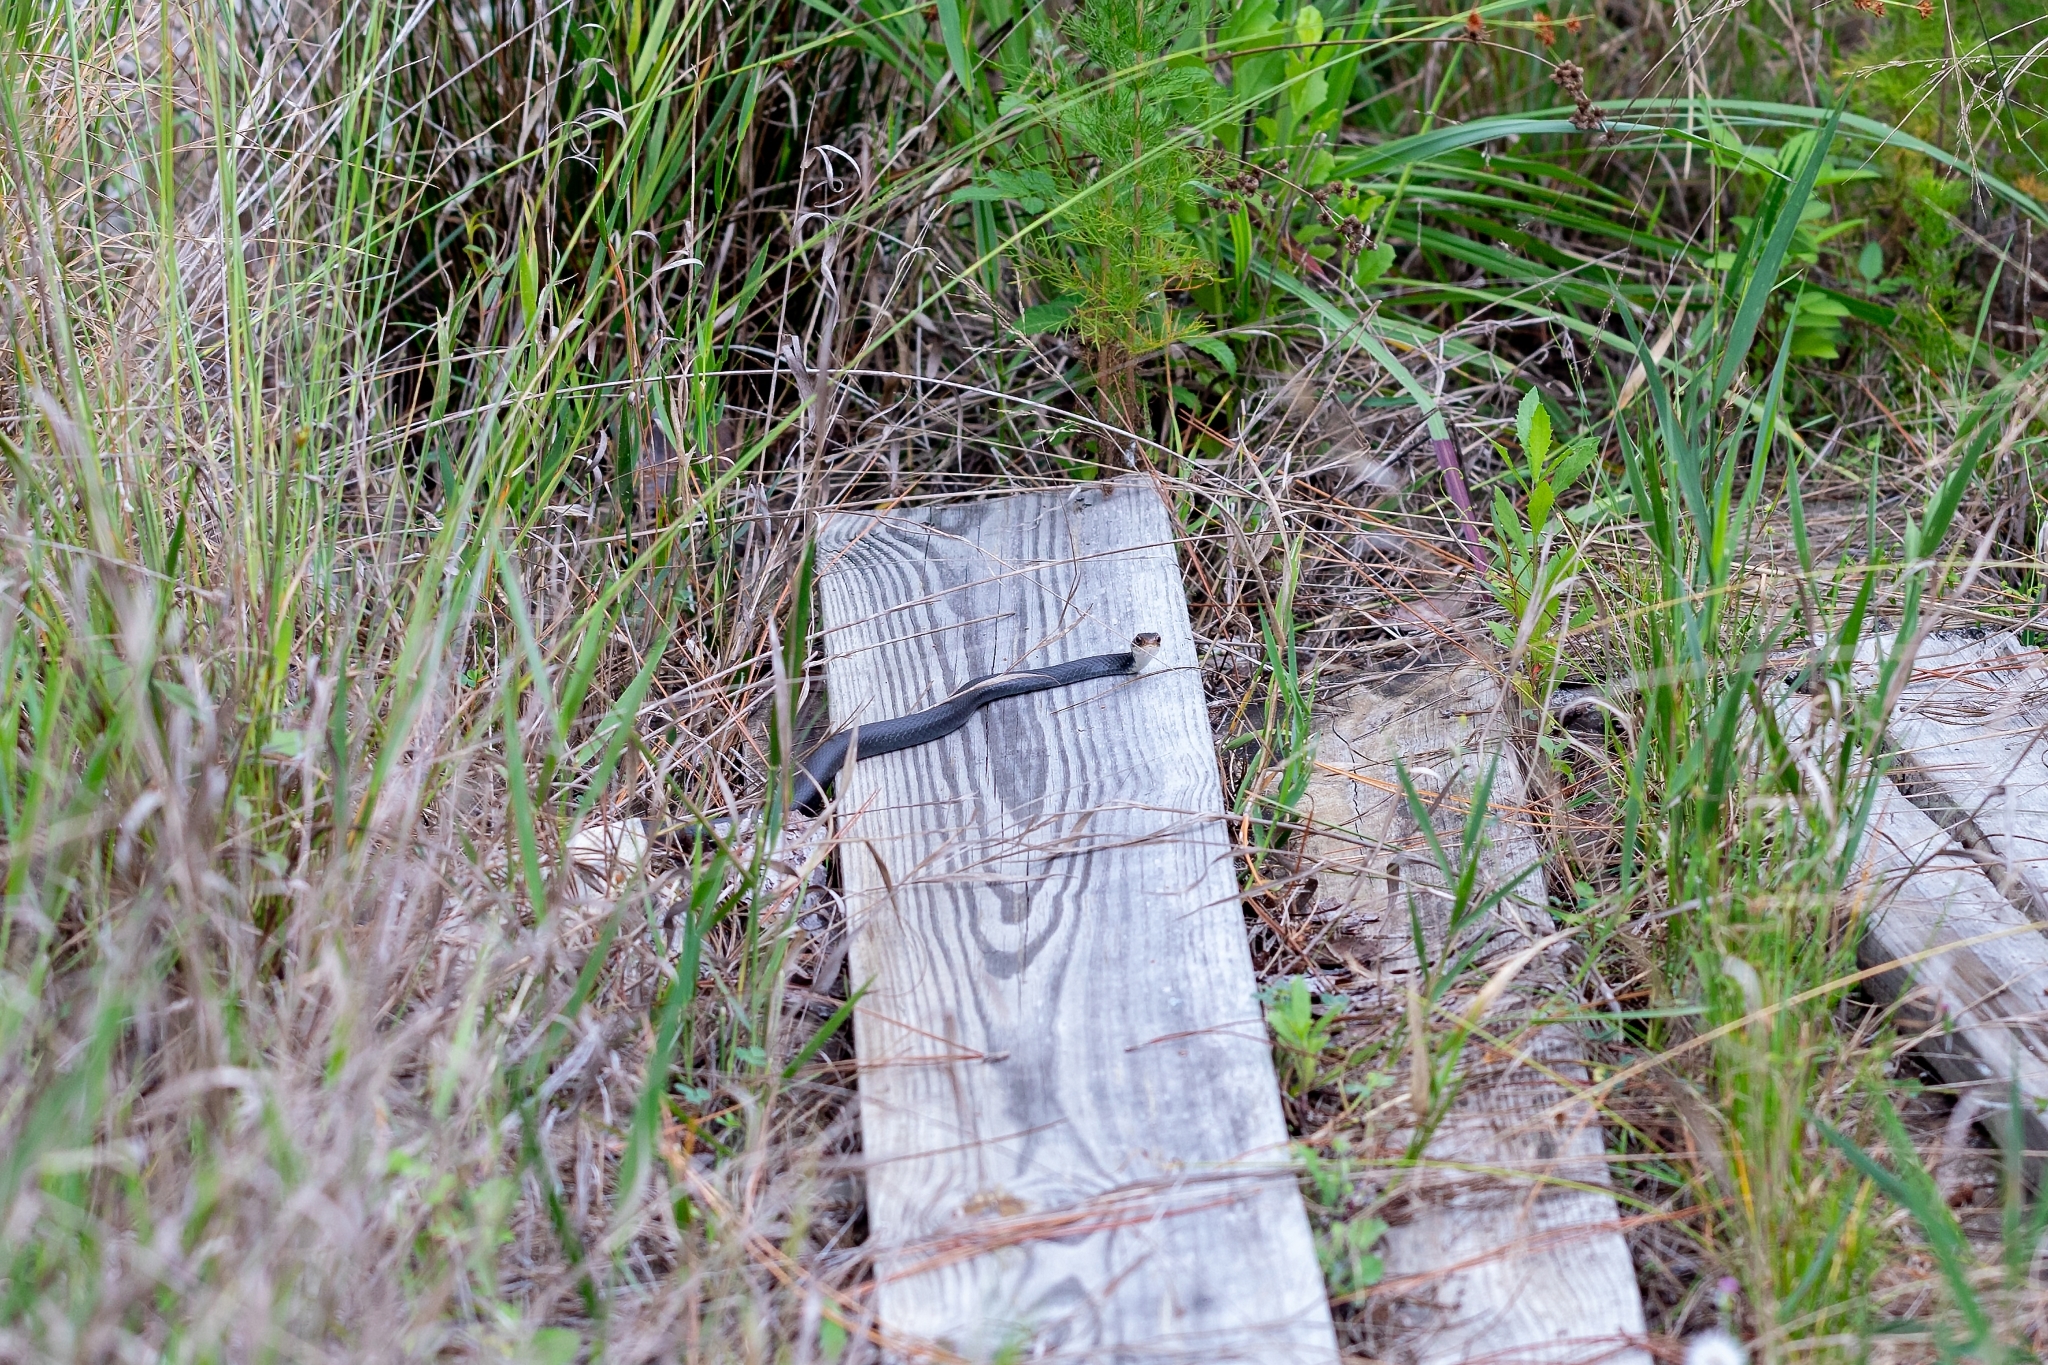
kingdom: Animalia
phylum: Chordata
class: Squamata
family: Colubridae
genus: Coluber
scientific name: Coluber constrictor
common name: Eastern racer
